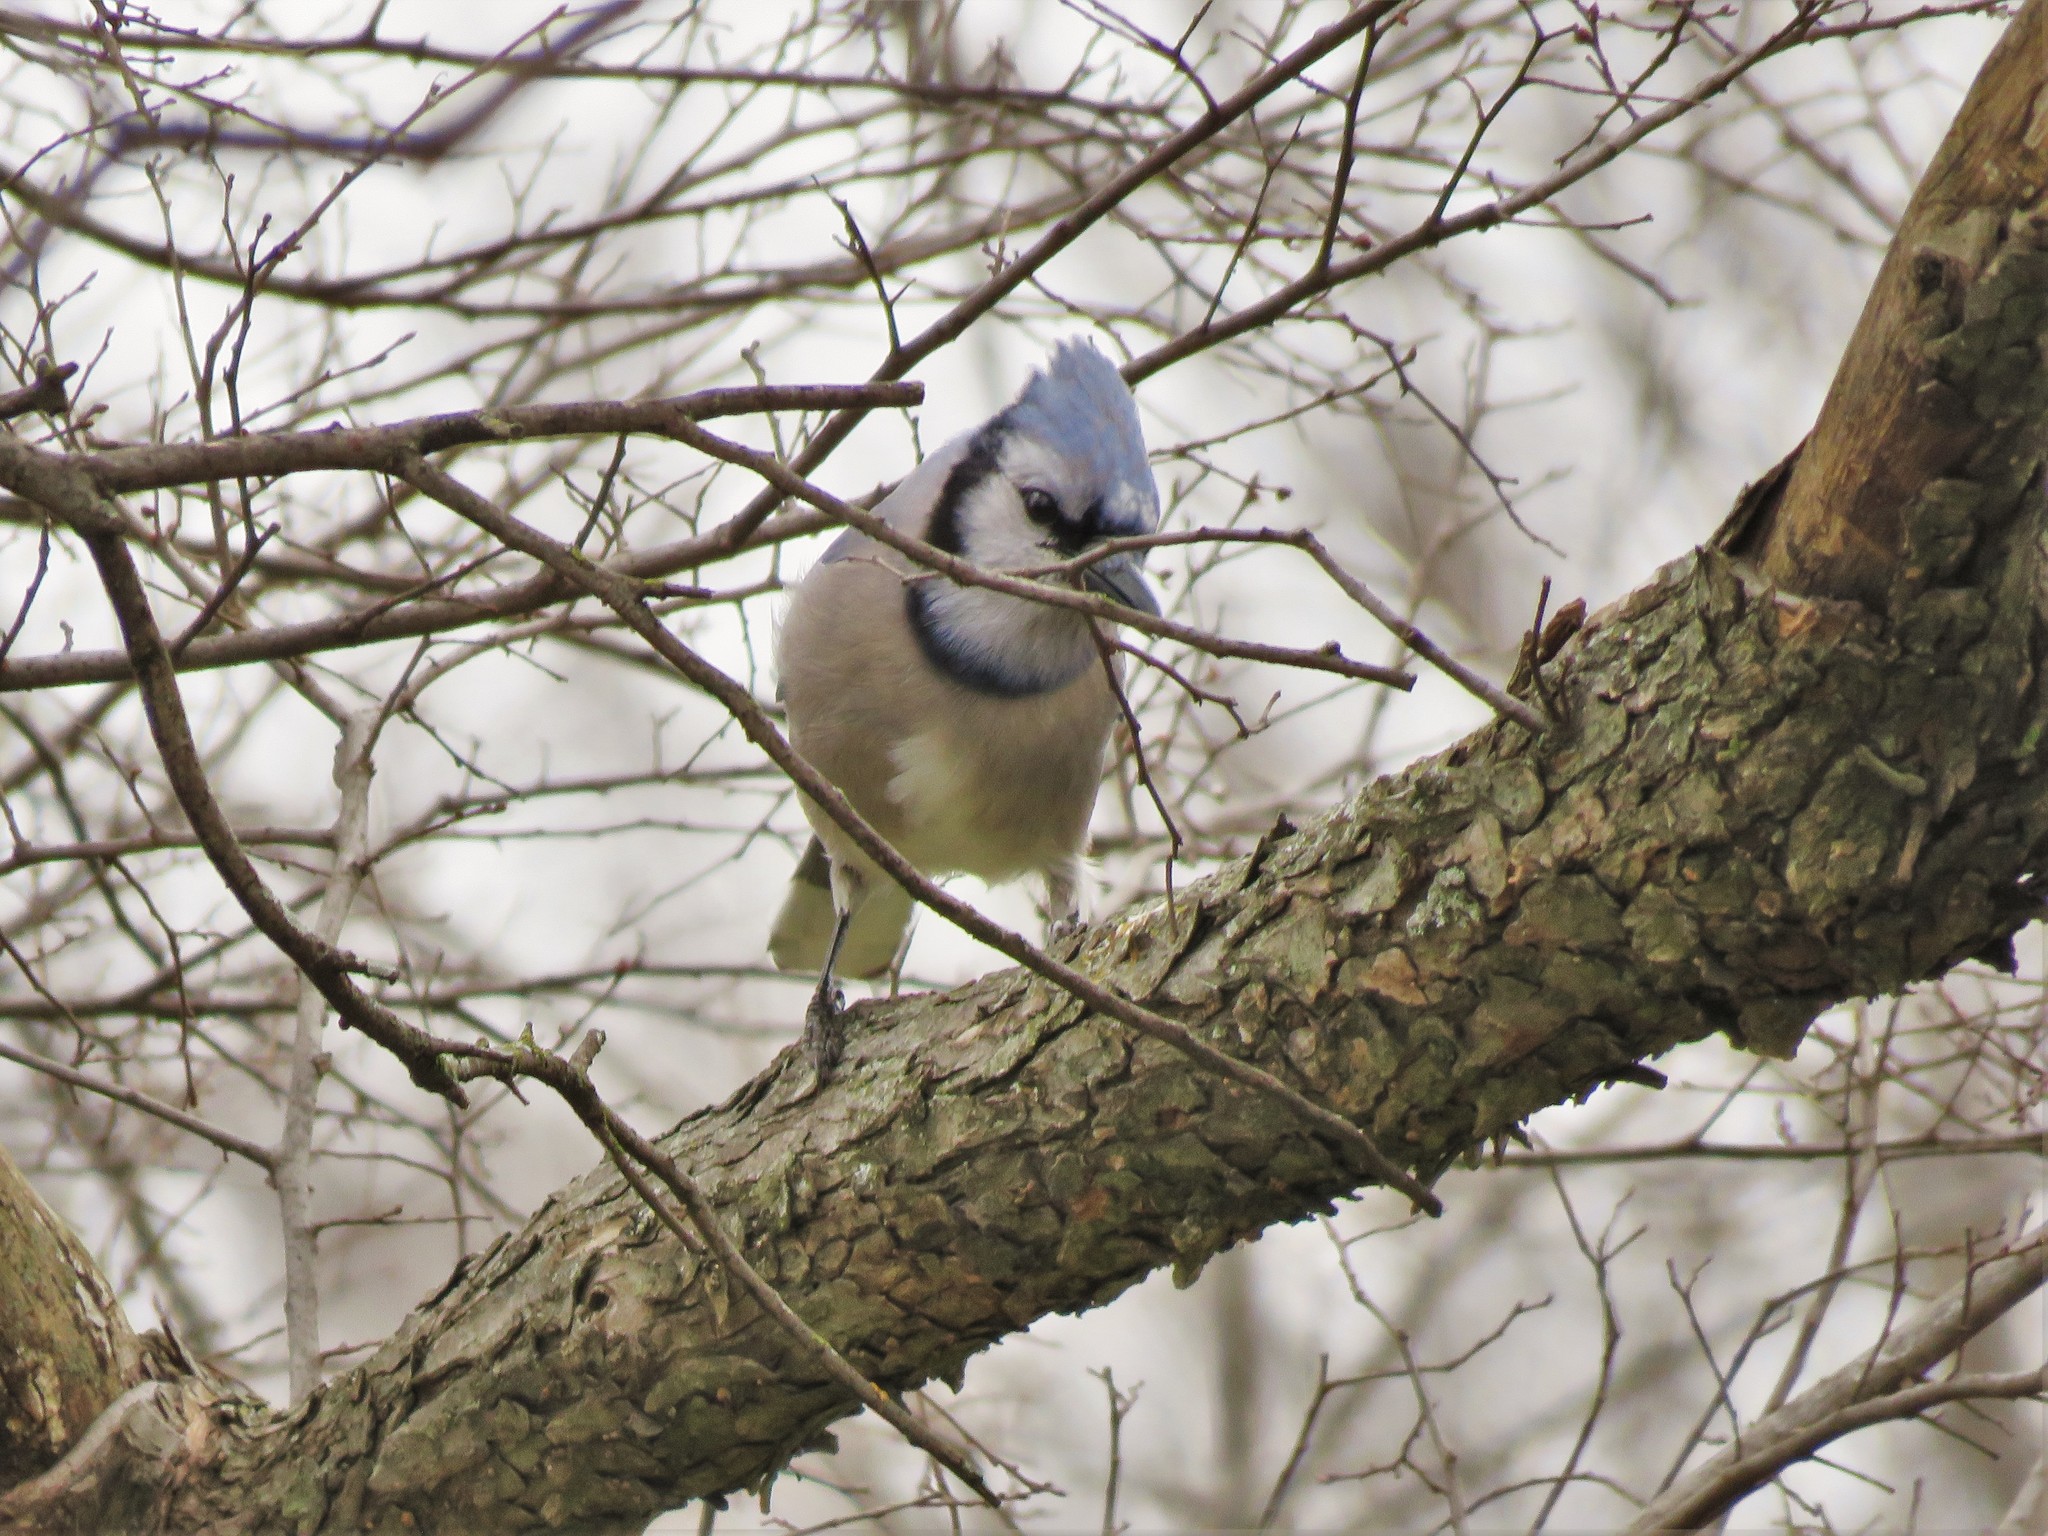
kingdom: Animalia
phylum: Chordata
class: Aves
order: Passeriformes
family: Corvidae
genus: Cyanocitta
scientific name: Cyanocitta cristata
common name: Blue jay
